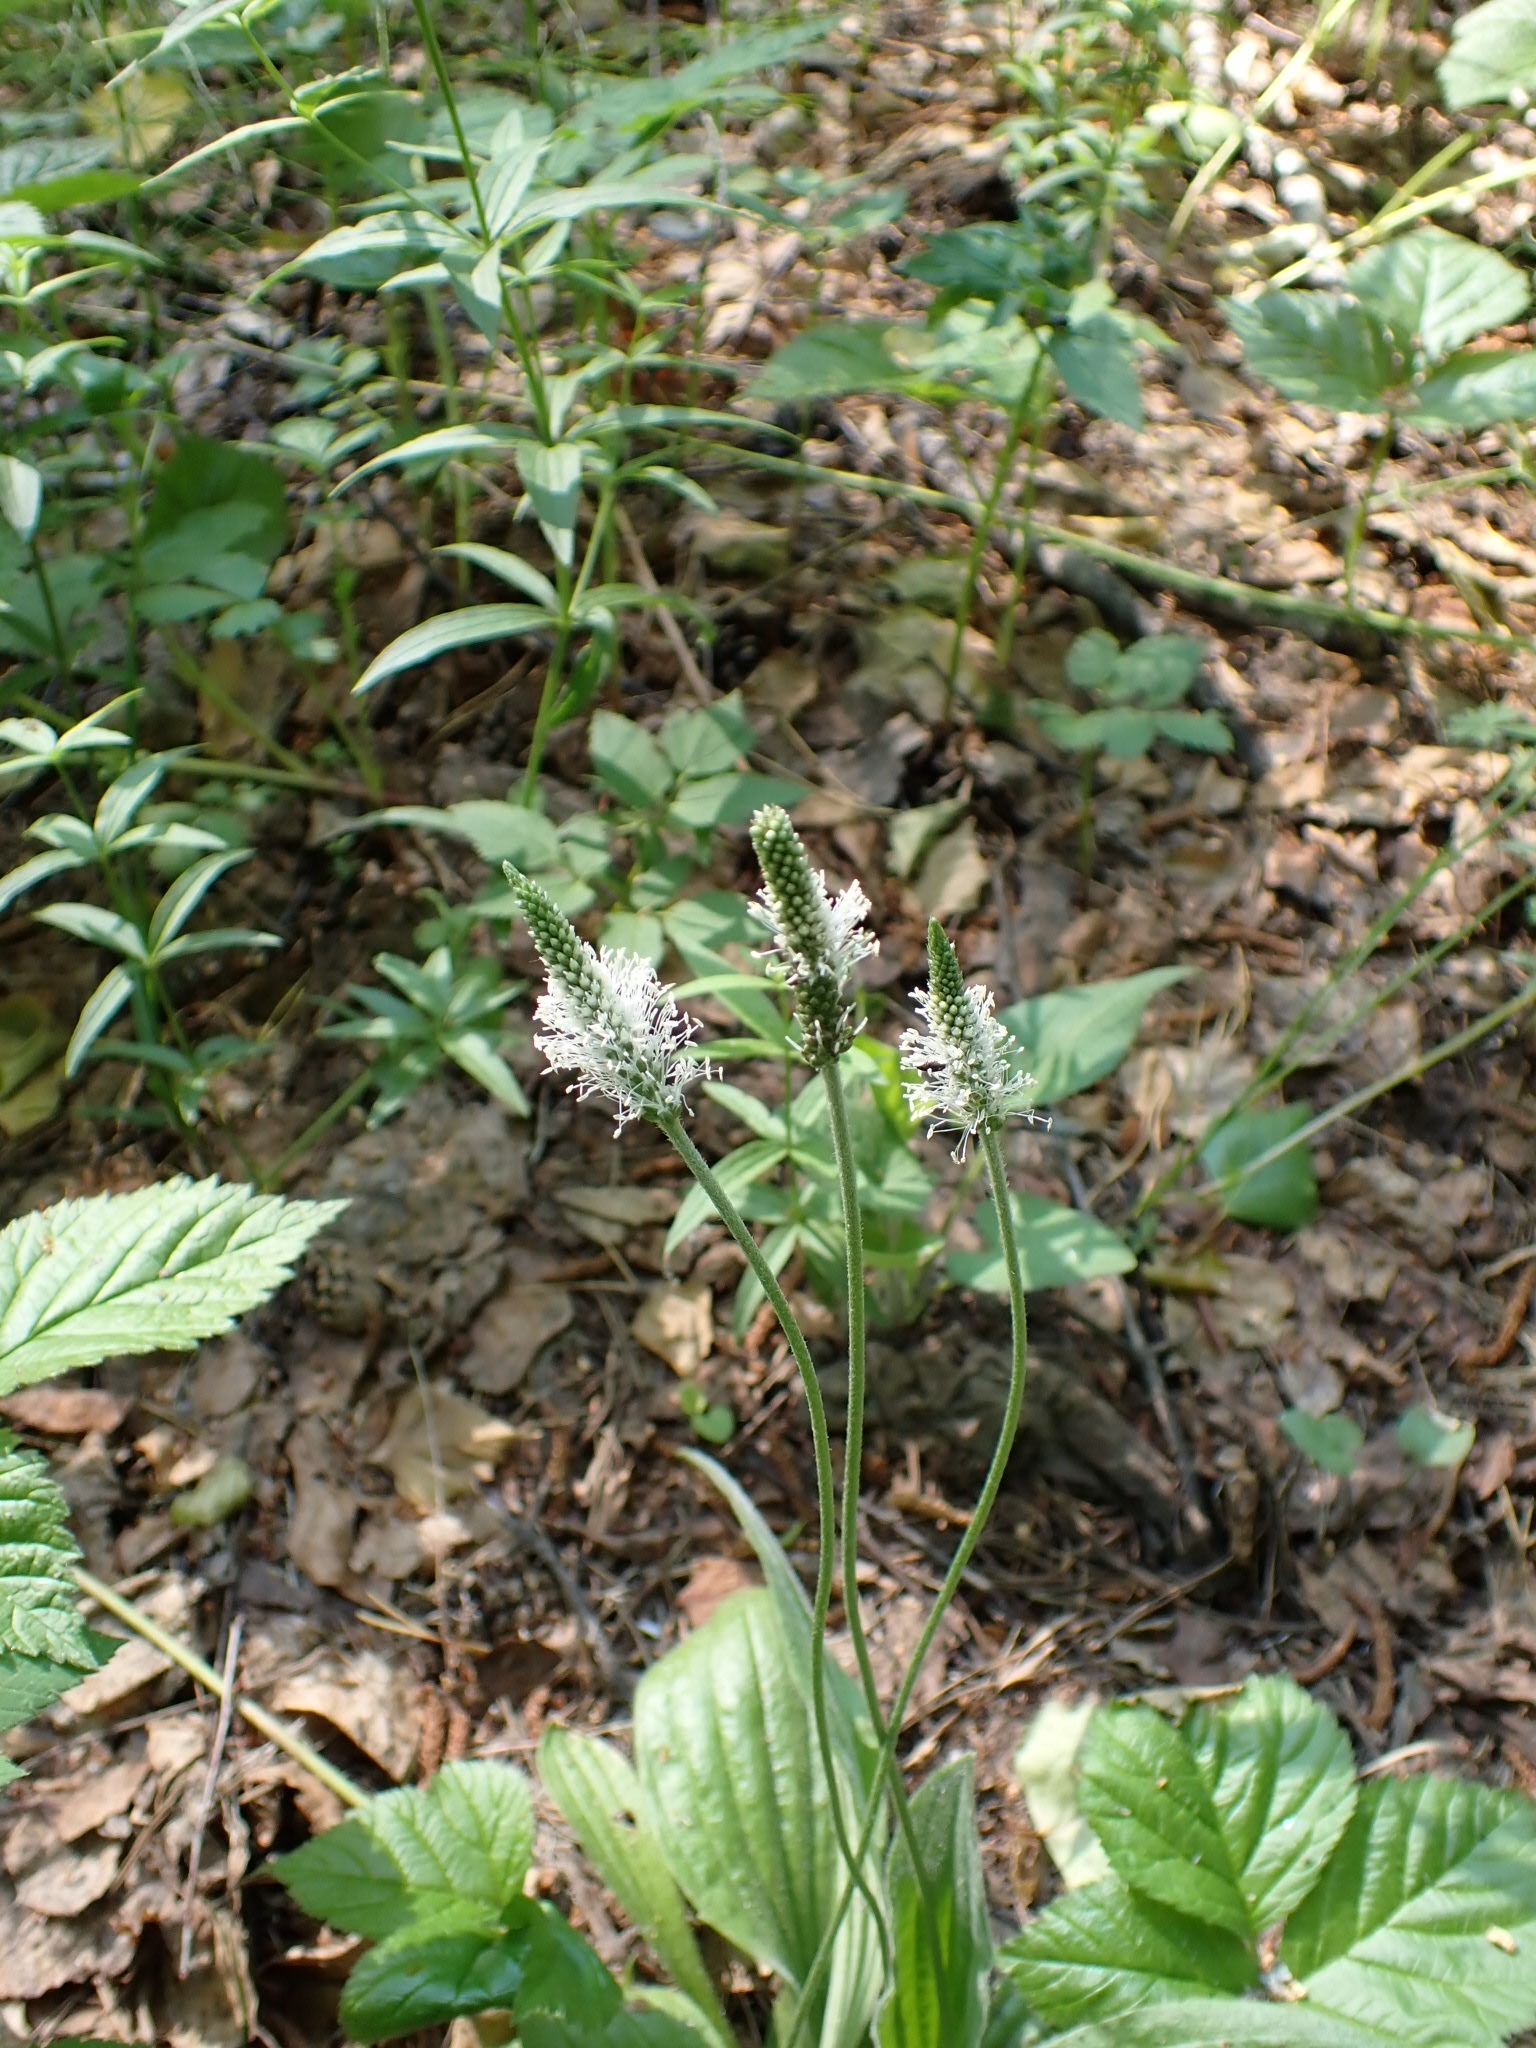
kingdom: Plantae
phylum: Tracheophyta
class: Magnoliopsida
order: Lamiales
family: Plantaginaceae
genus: Plantago
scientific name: Plantago media
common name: Hoary plantain
